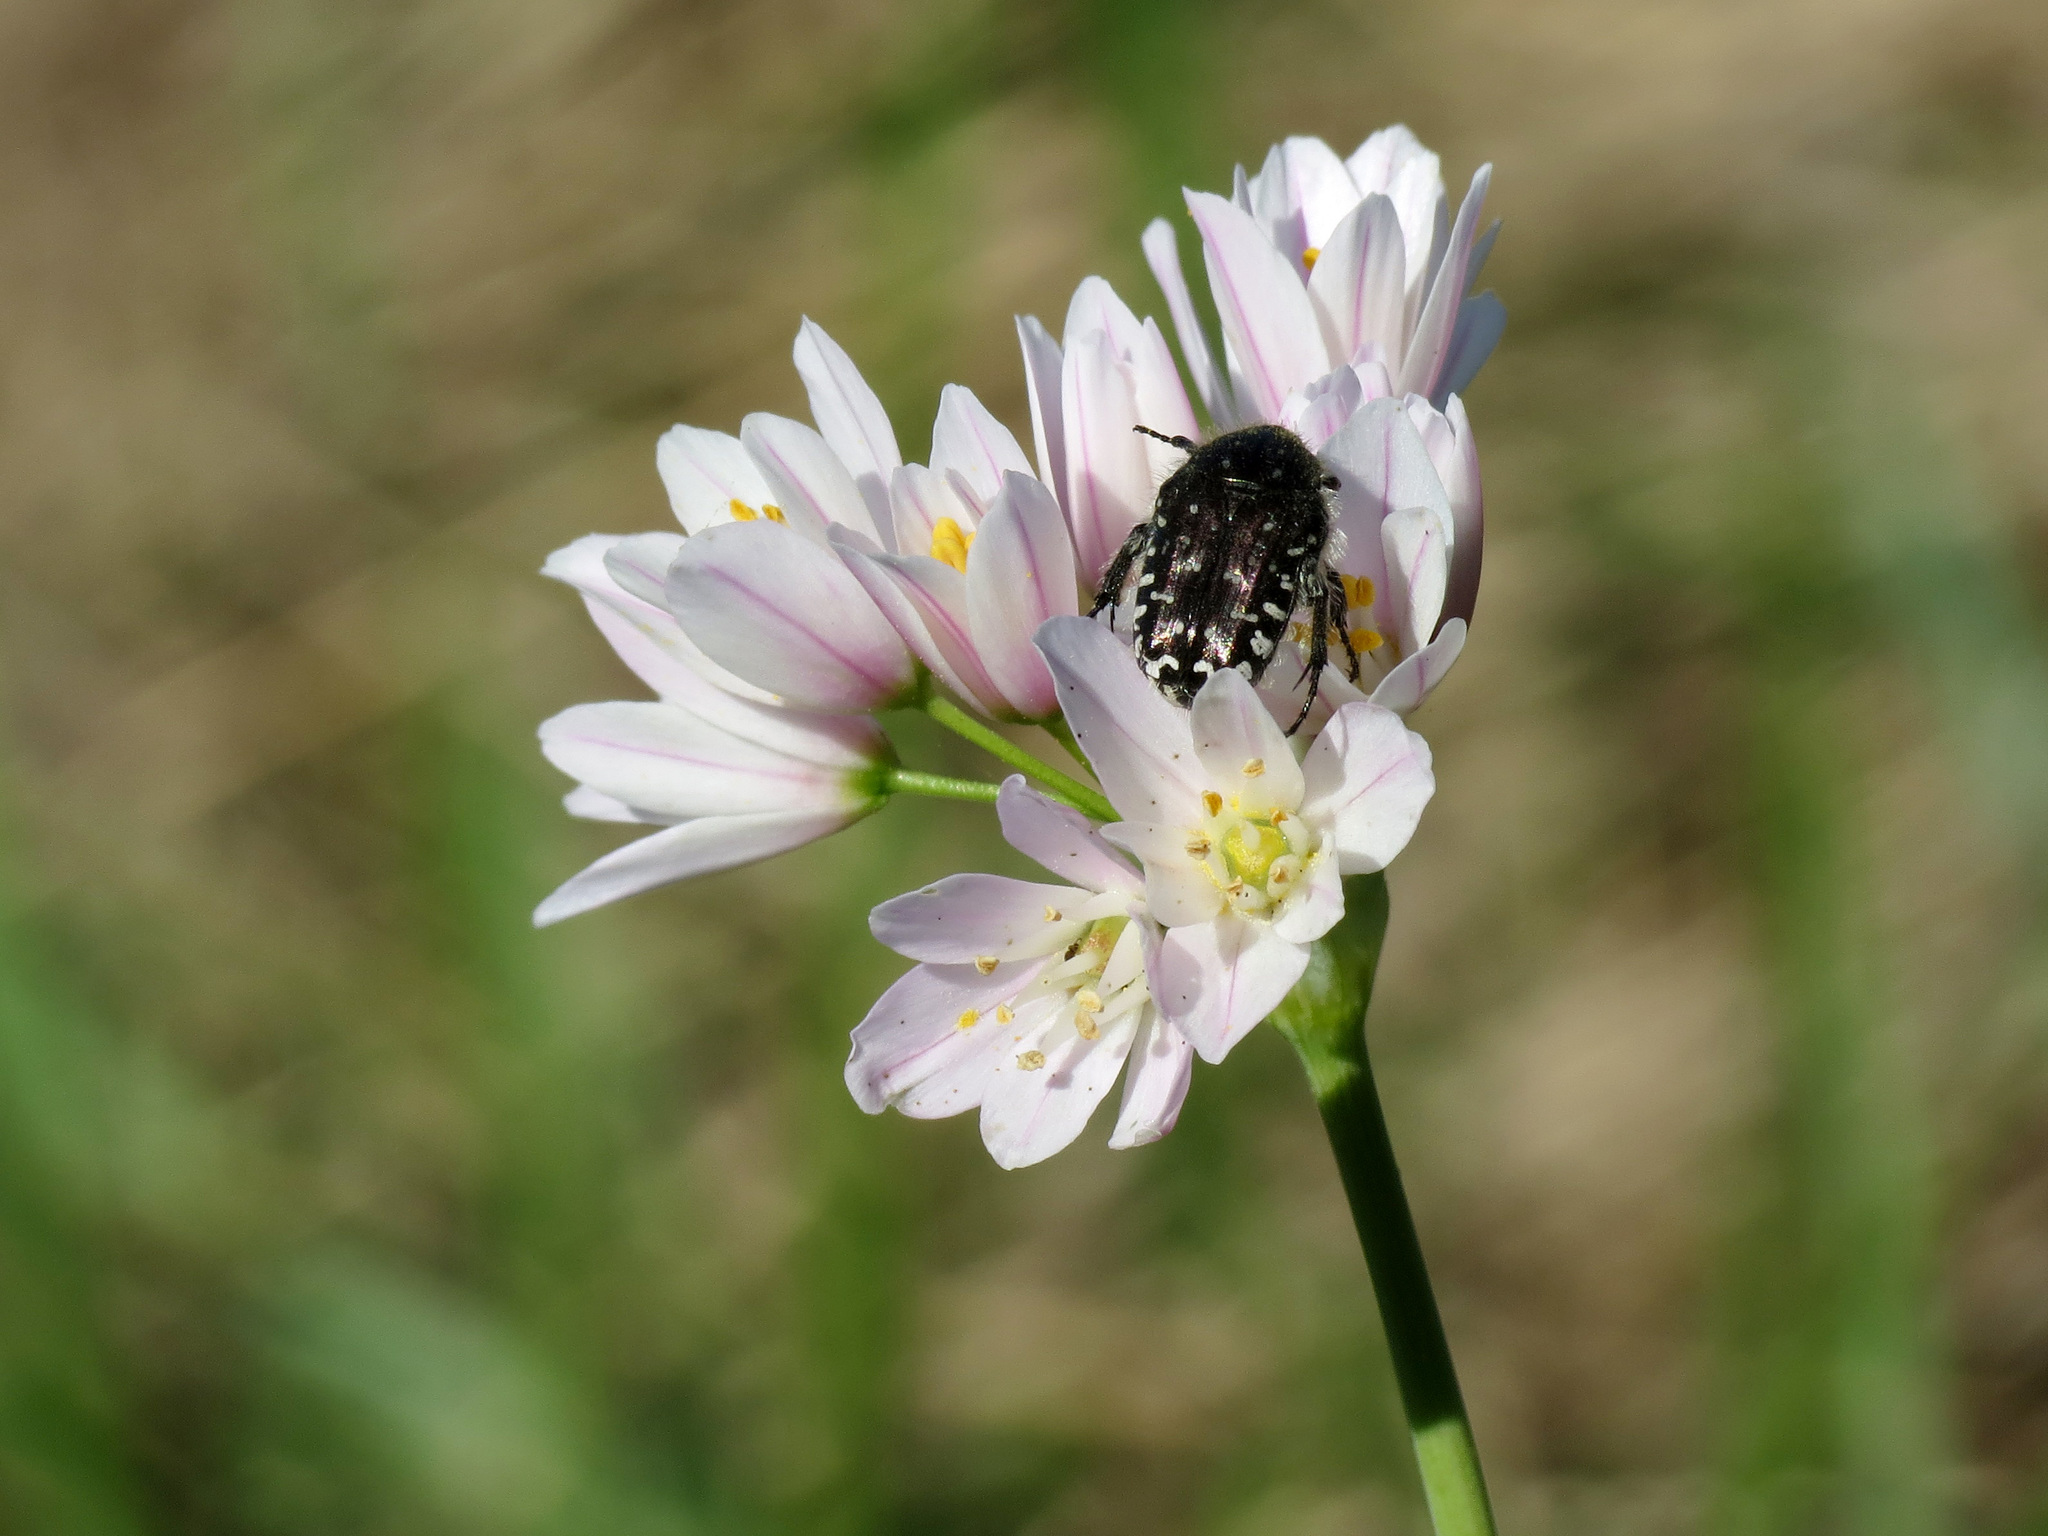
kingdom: Animalia
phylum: Arthropoda
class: Insecta
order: Coleoptera
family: Scarabaeidae
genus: Oxythyrea
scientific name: Oxythyrea funesta
